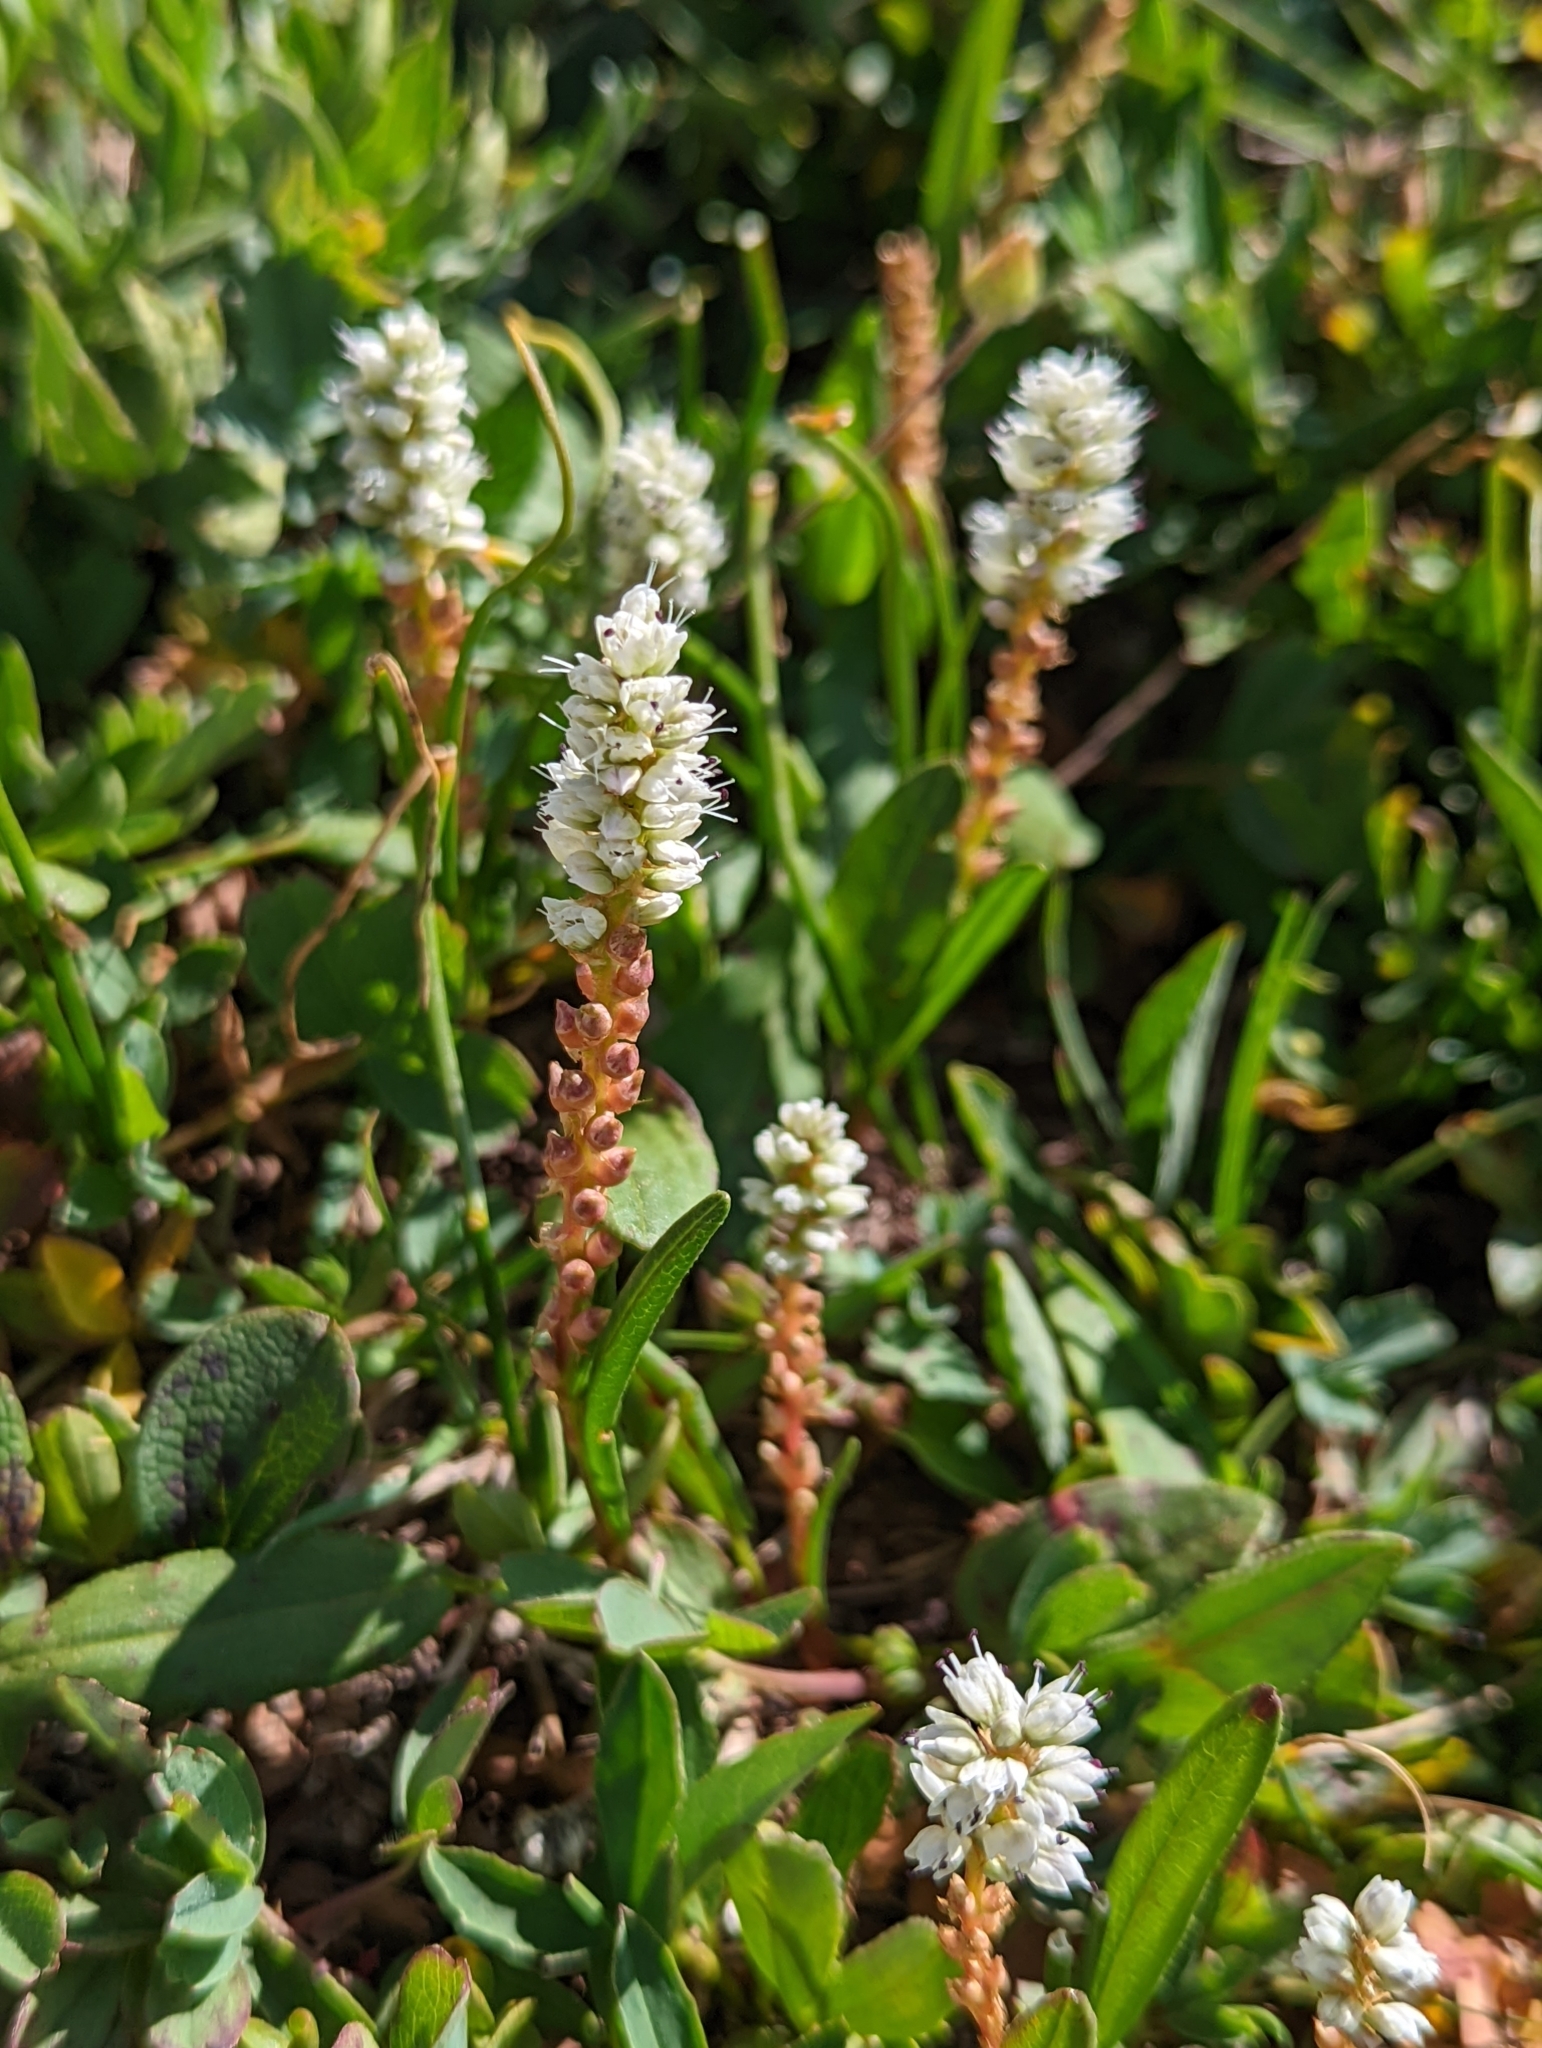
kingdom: Plantae
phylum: Tracheophyta
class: Magnoliopsida
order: Caryophyllales
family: Polygonaceae
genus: Bistorta
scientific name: Bistorta vivipara
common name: Alpine bistort
